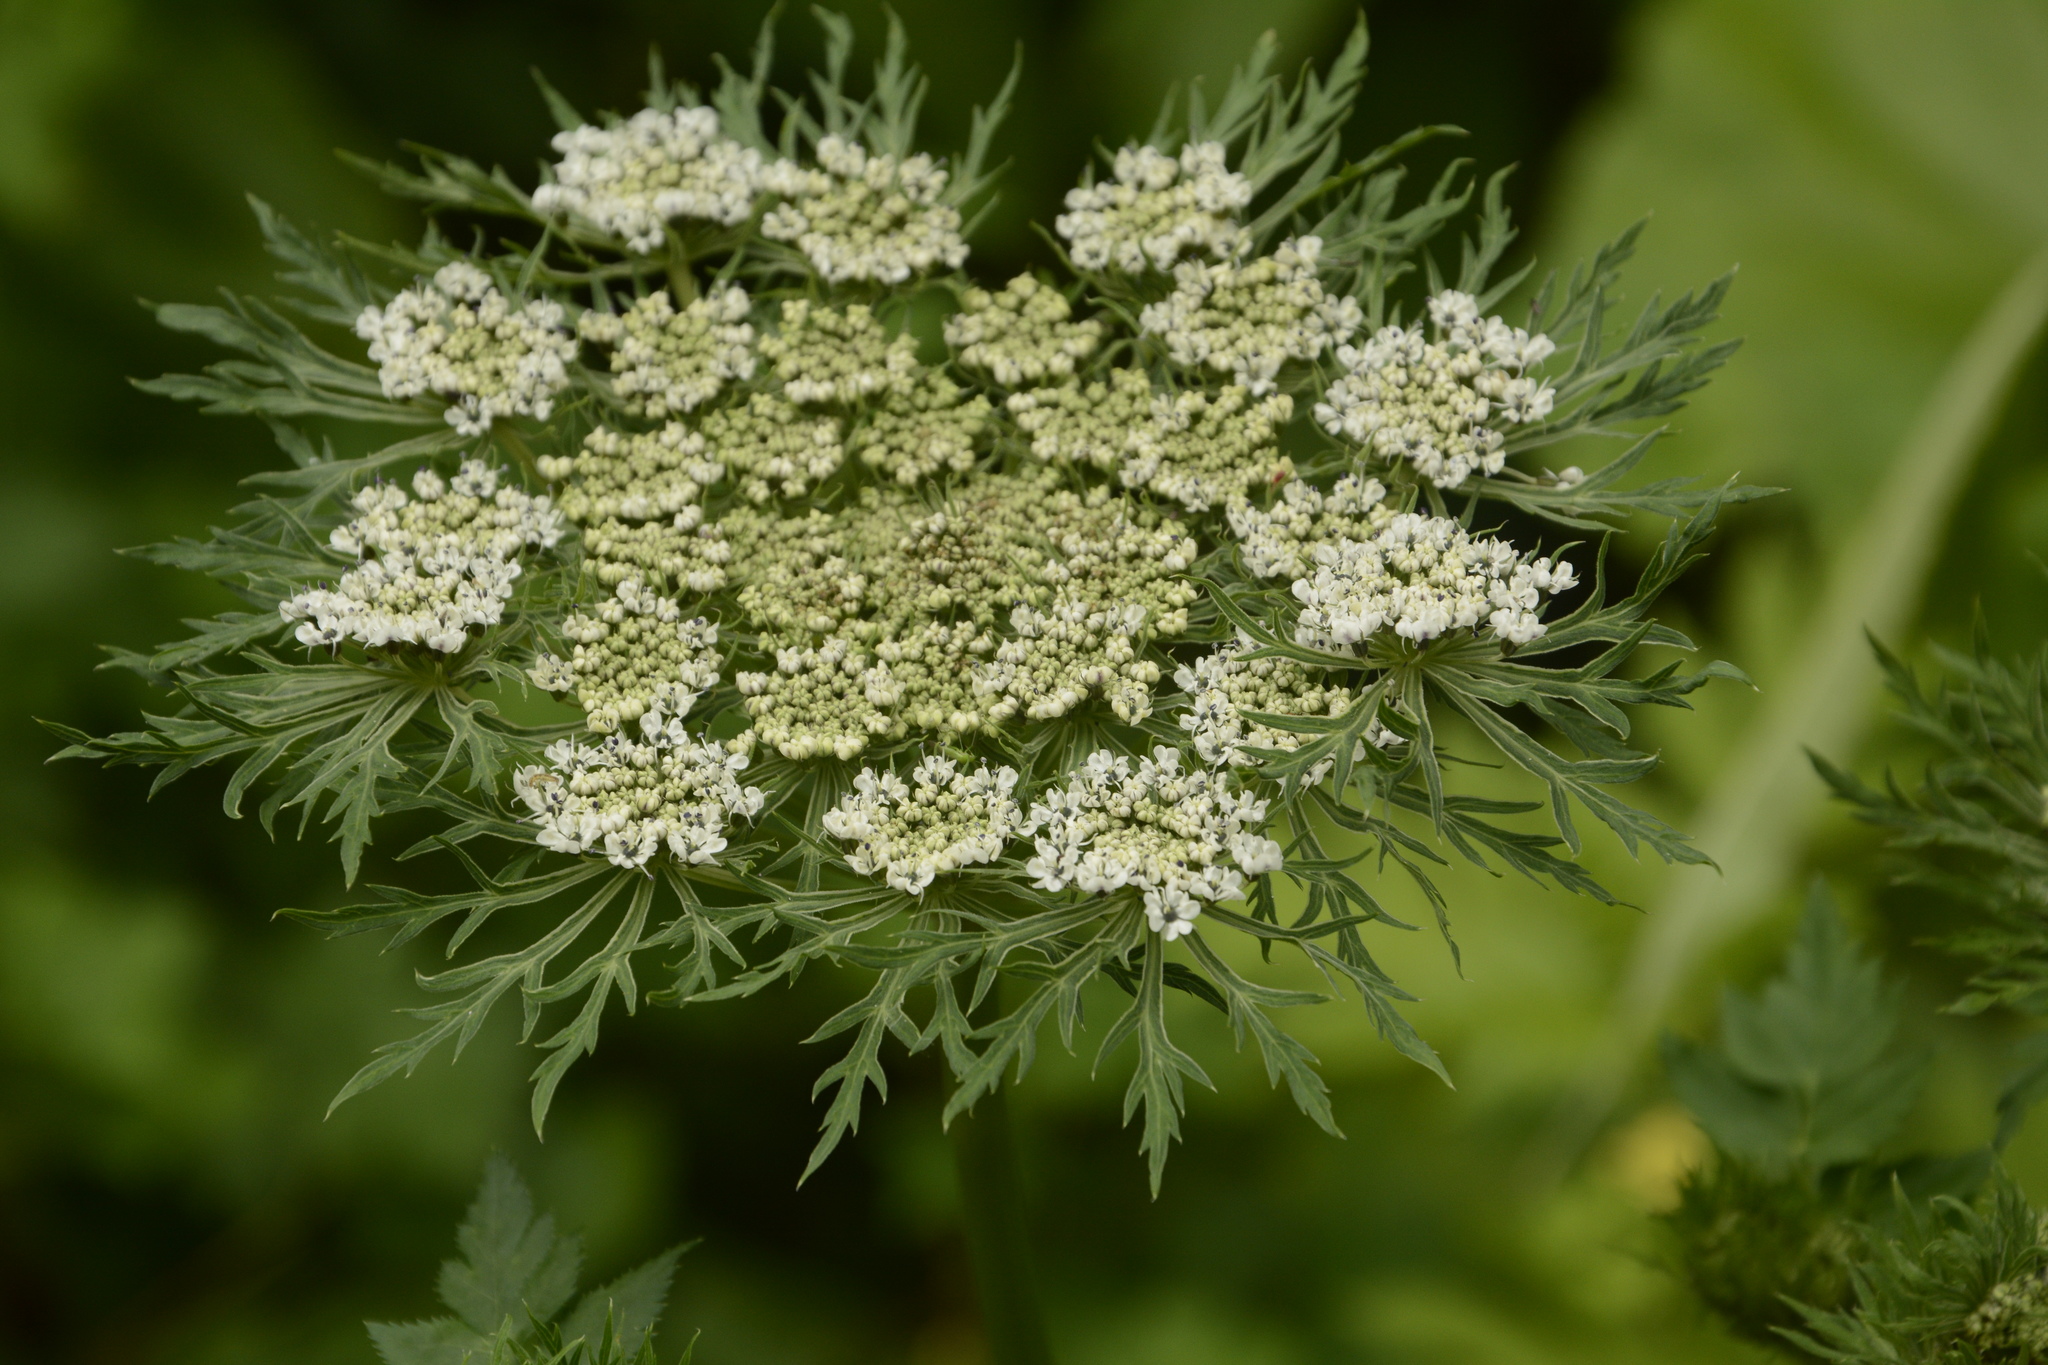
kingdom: Plantae
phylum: Tracheophyta
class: Magnoliopsida
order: Apiales
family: Apiaceae
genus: Selinum
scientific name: Selinum vaginatum
